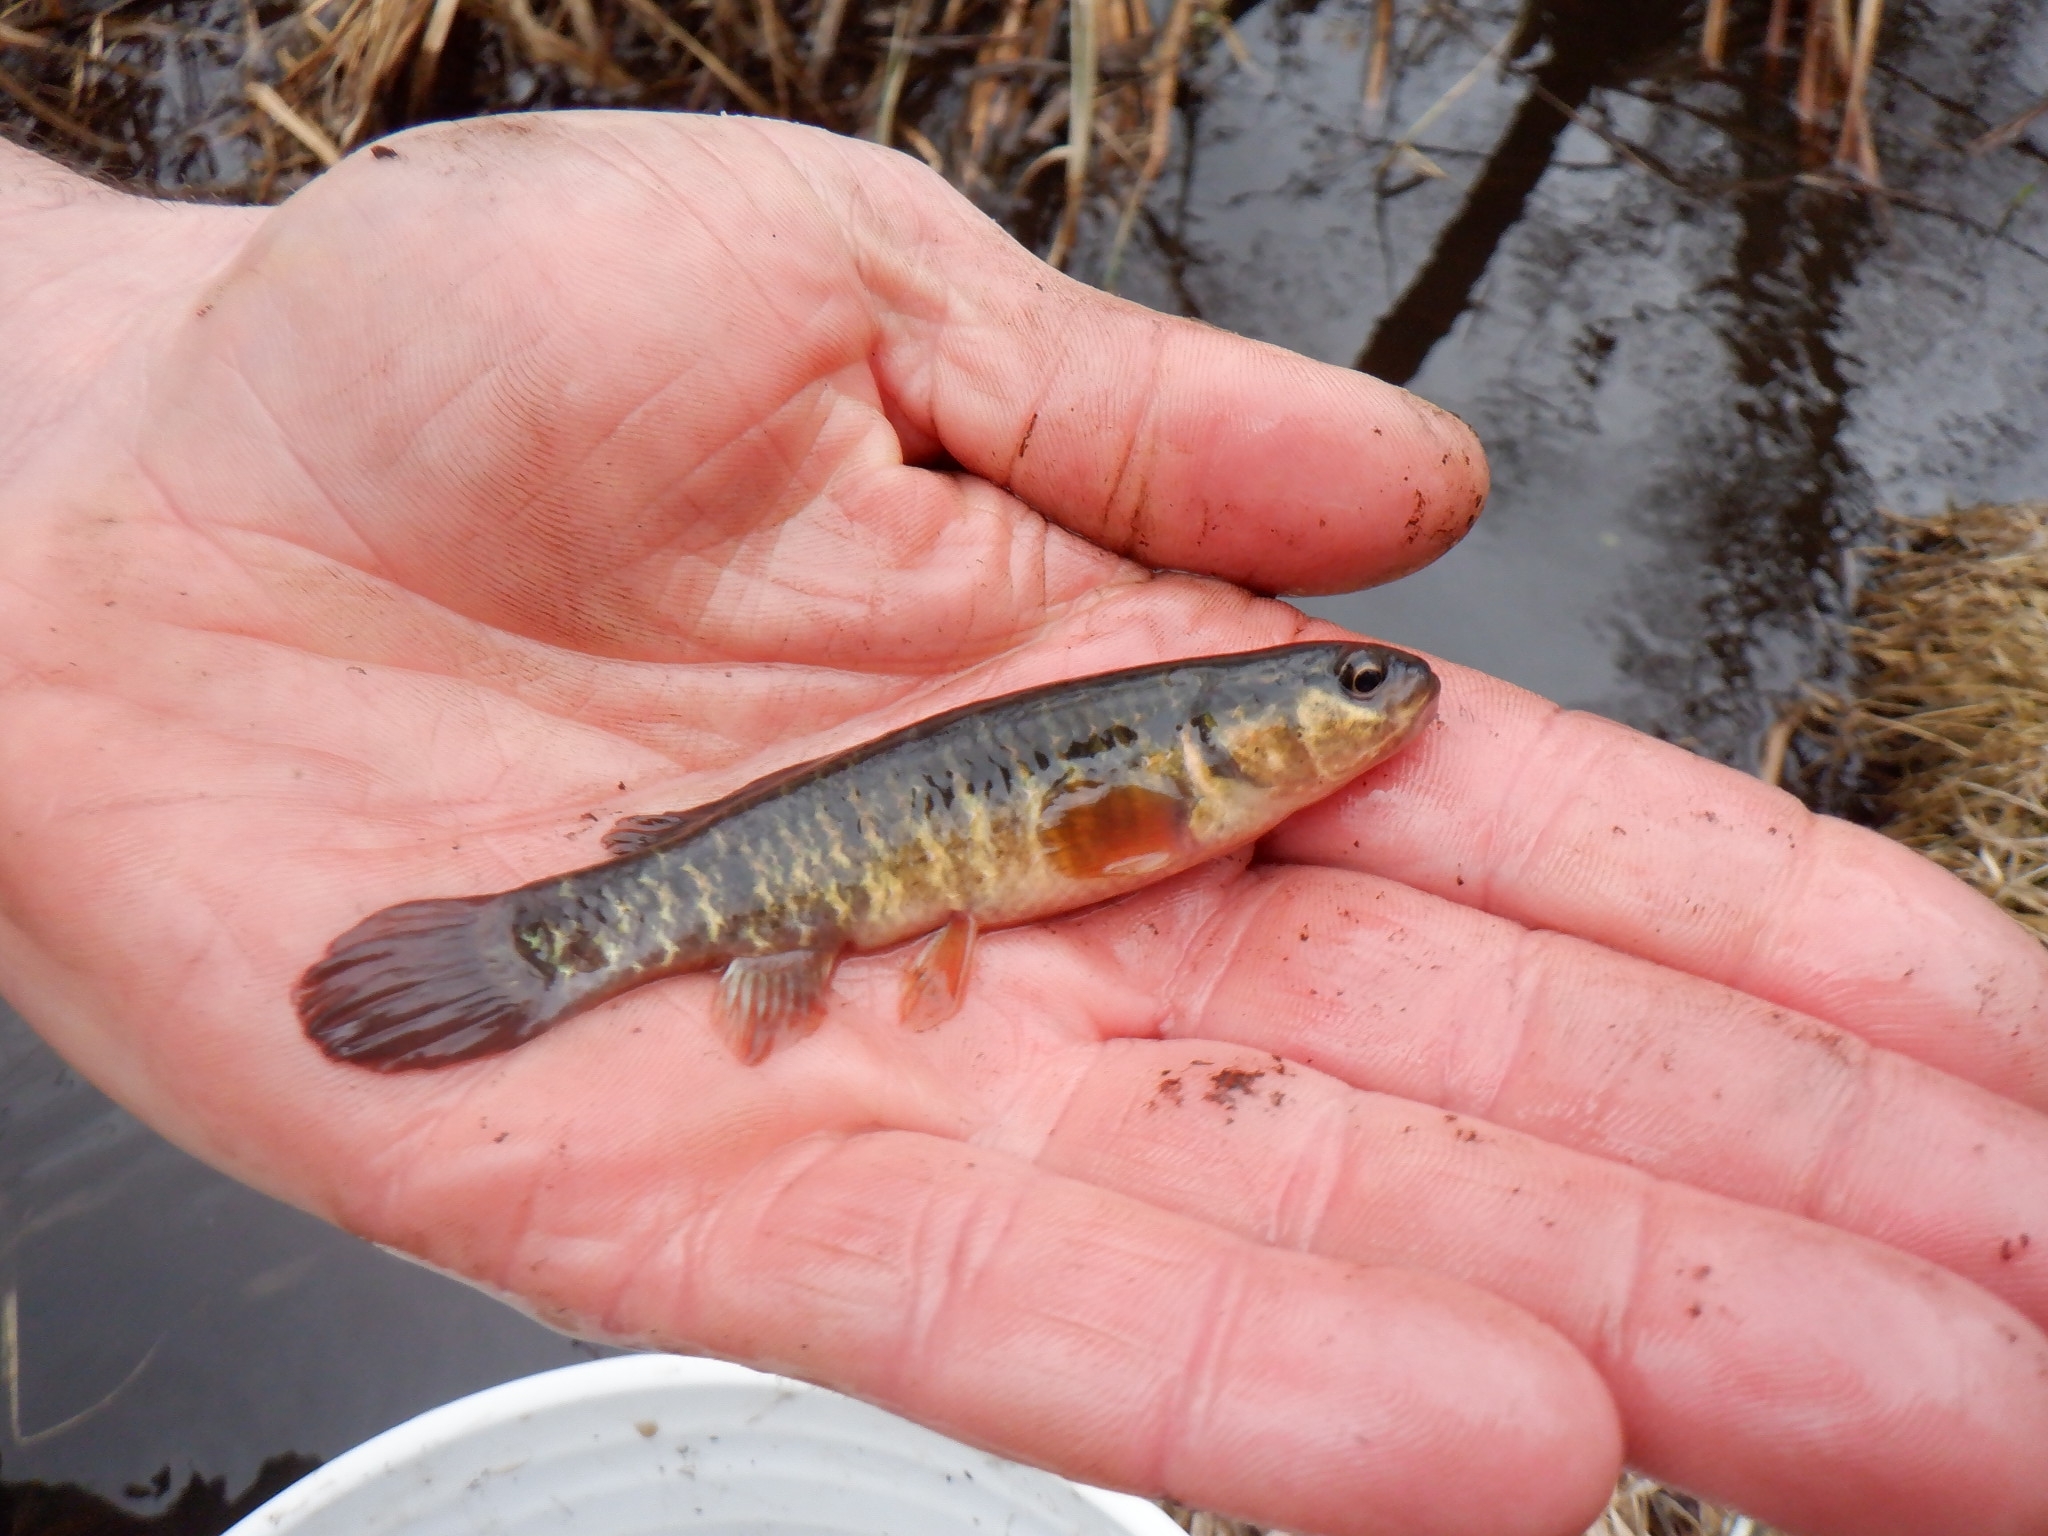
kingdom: Animalia
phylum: Chordata
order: Esociformes
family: Umbridae
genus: Umbra
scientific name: Umbra limi
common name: Central mudminnow
